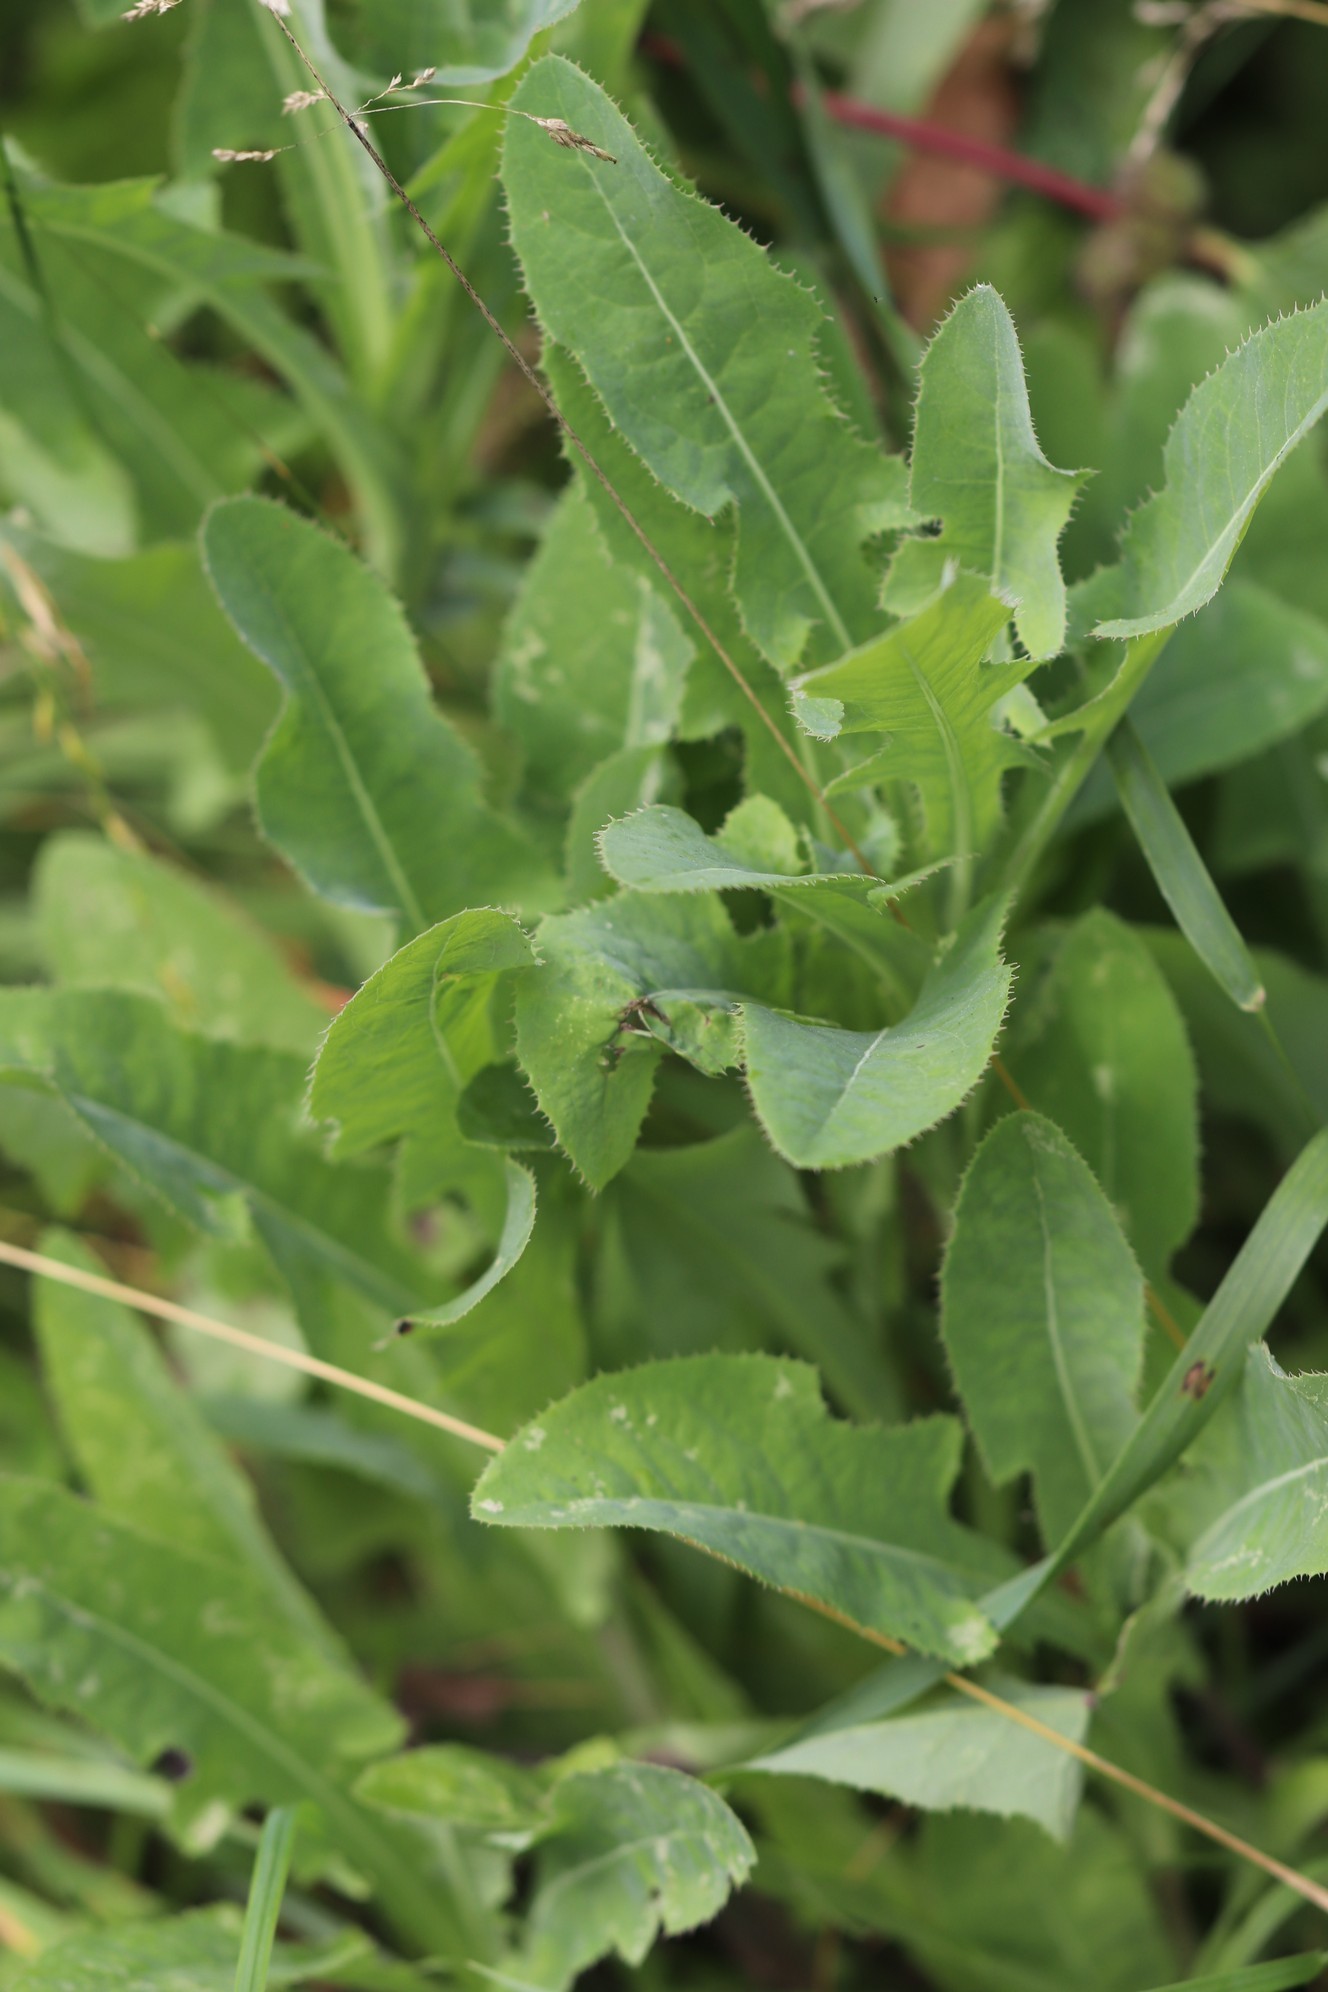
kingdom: Plantae
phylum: Tracheophyta
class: Magnoliopsida
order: Asterales
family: Asteraceae
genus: Sonchus
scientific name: Sonchus arvensis
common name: Perennial sow-thistle
